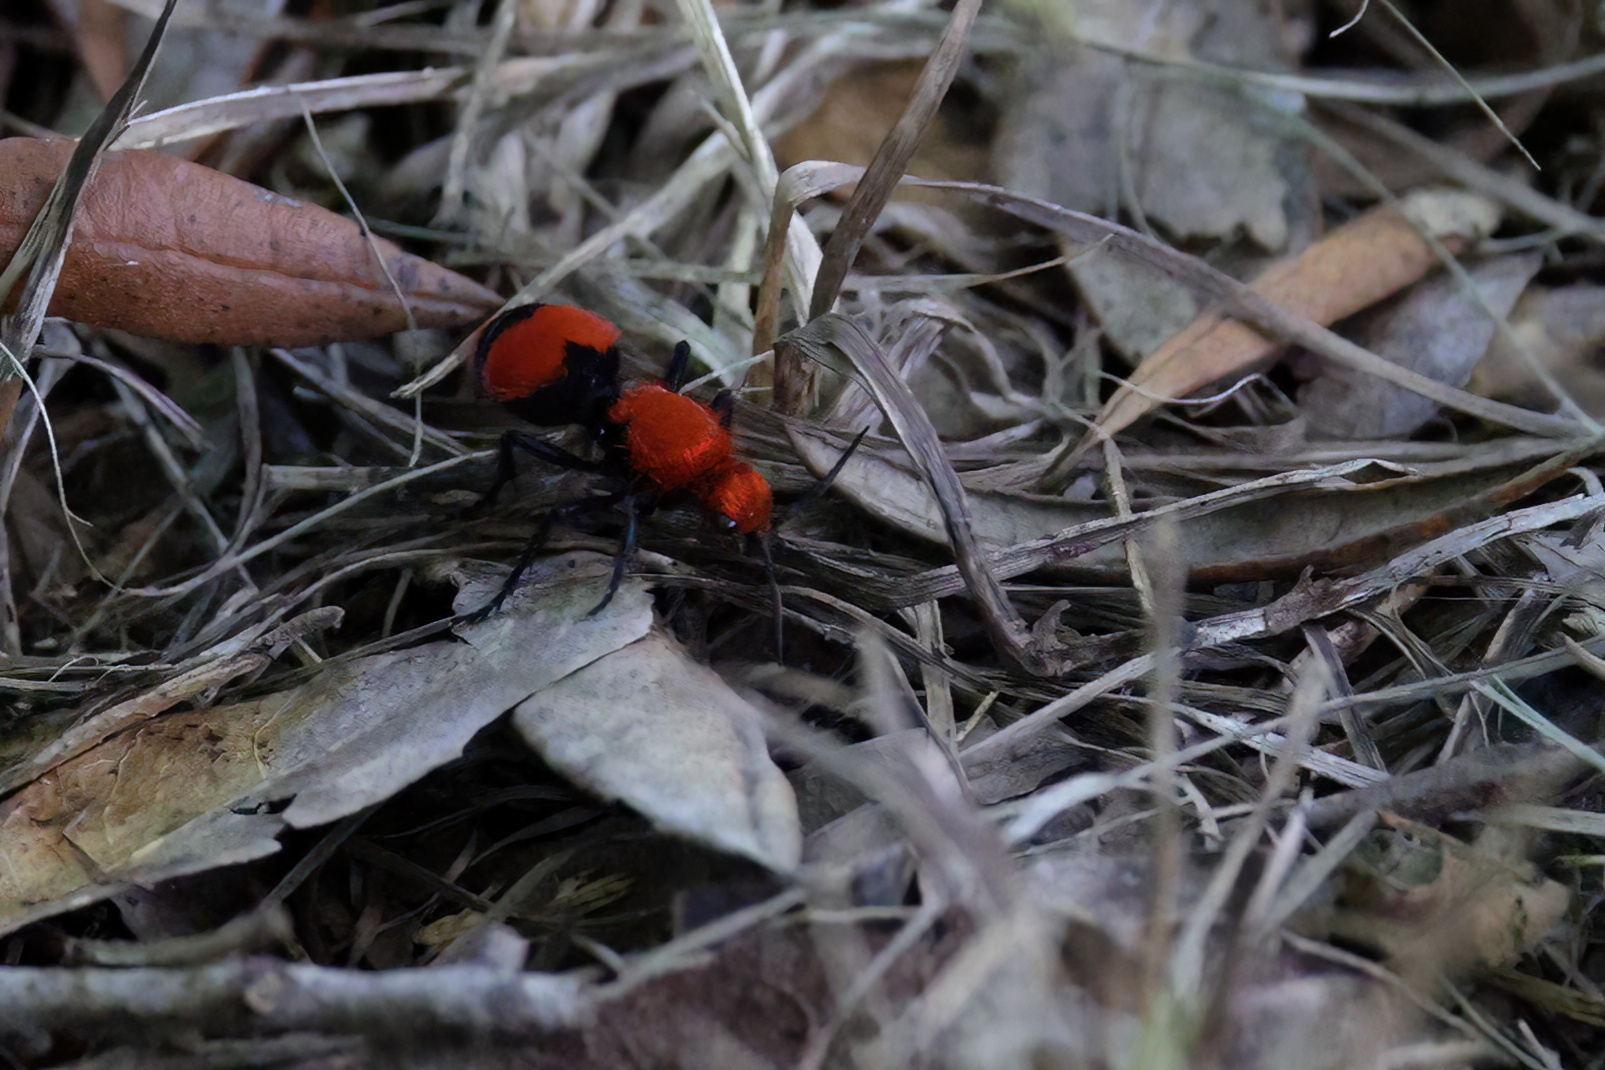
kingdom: Animalia
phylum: Arthropoda
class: Insecta
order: Hymenoptera
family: Mutillidae
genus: Dasymutilla
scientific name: Dasymutilla occidentalis
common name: Common eastern velvet ant
